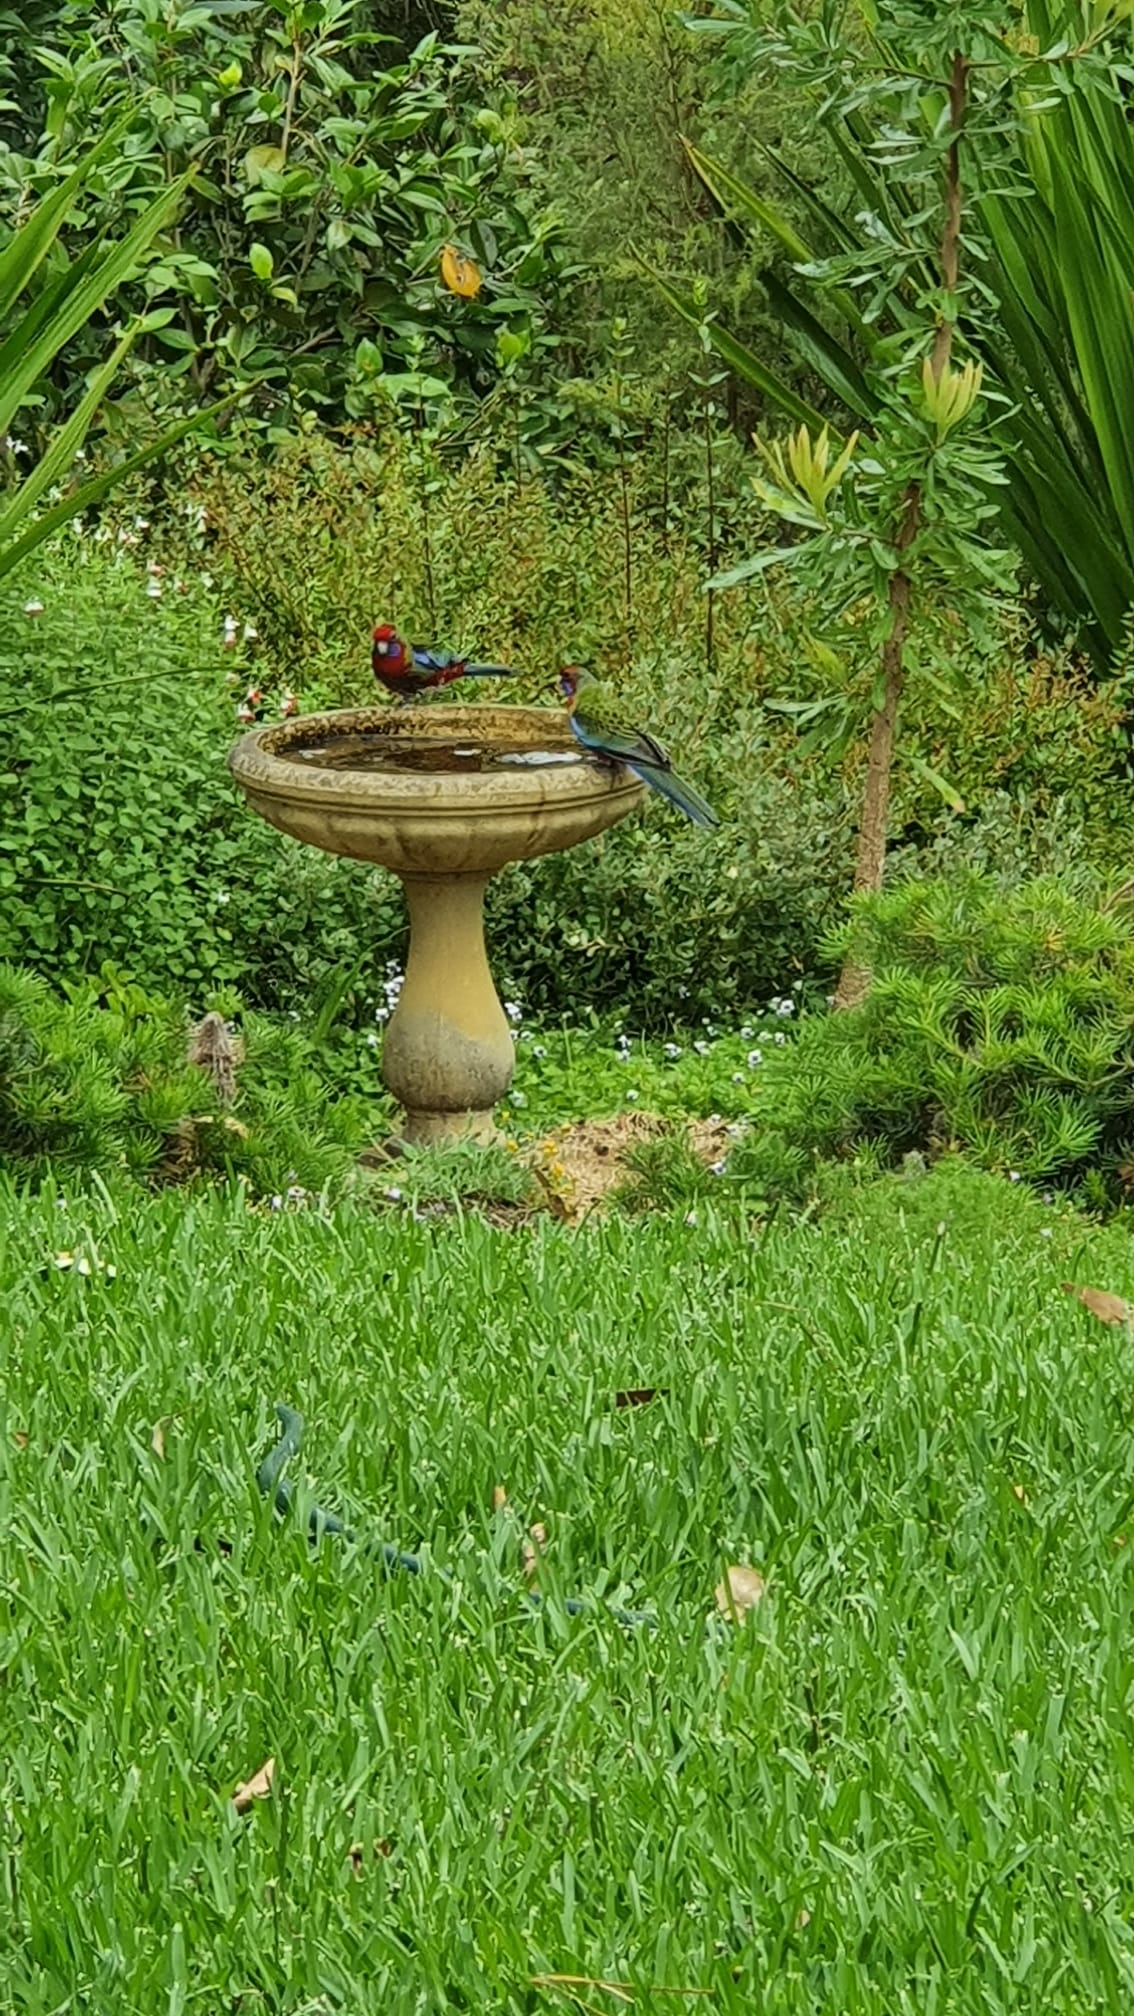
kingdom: Animalia
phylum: Chordata
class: Aves
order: Psittaciformes
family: Psittacidae
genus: Platycercus
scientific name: Platycercus elegans
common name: Crimson rosella
